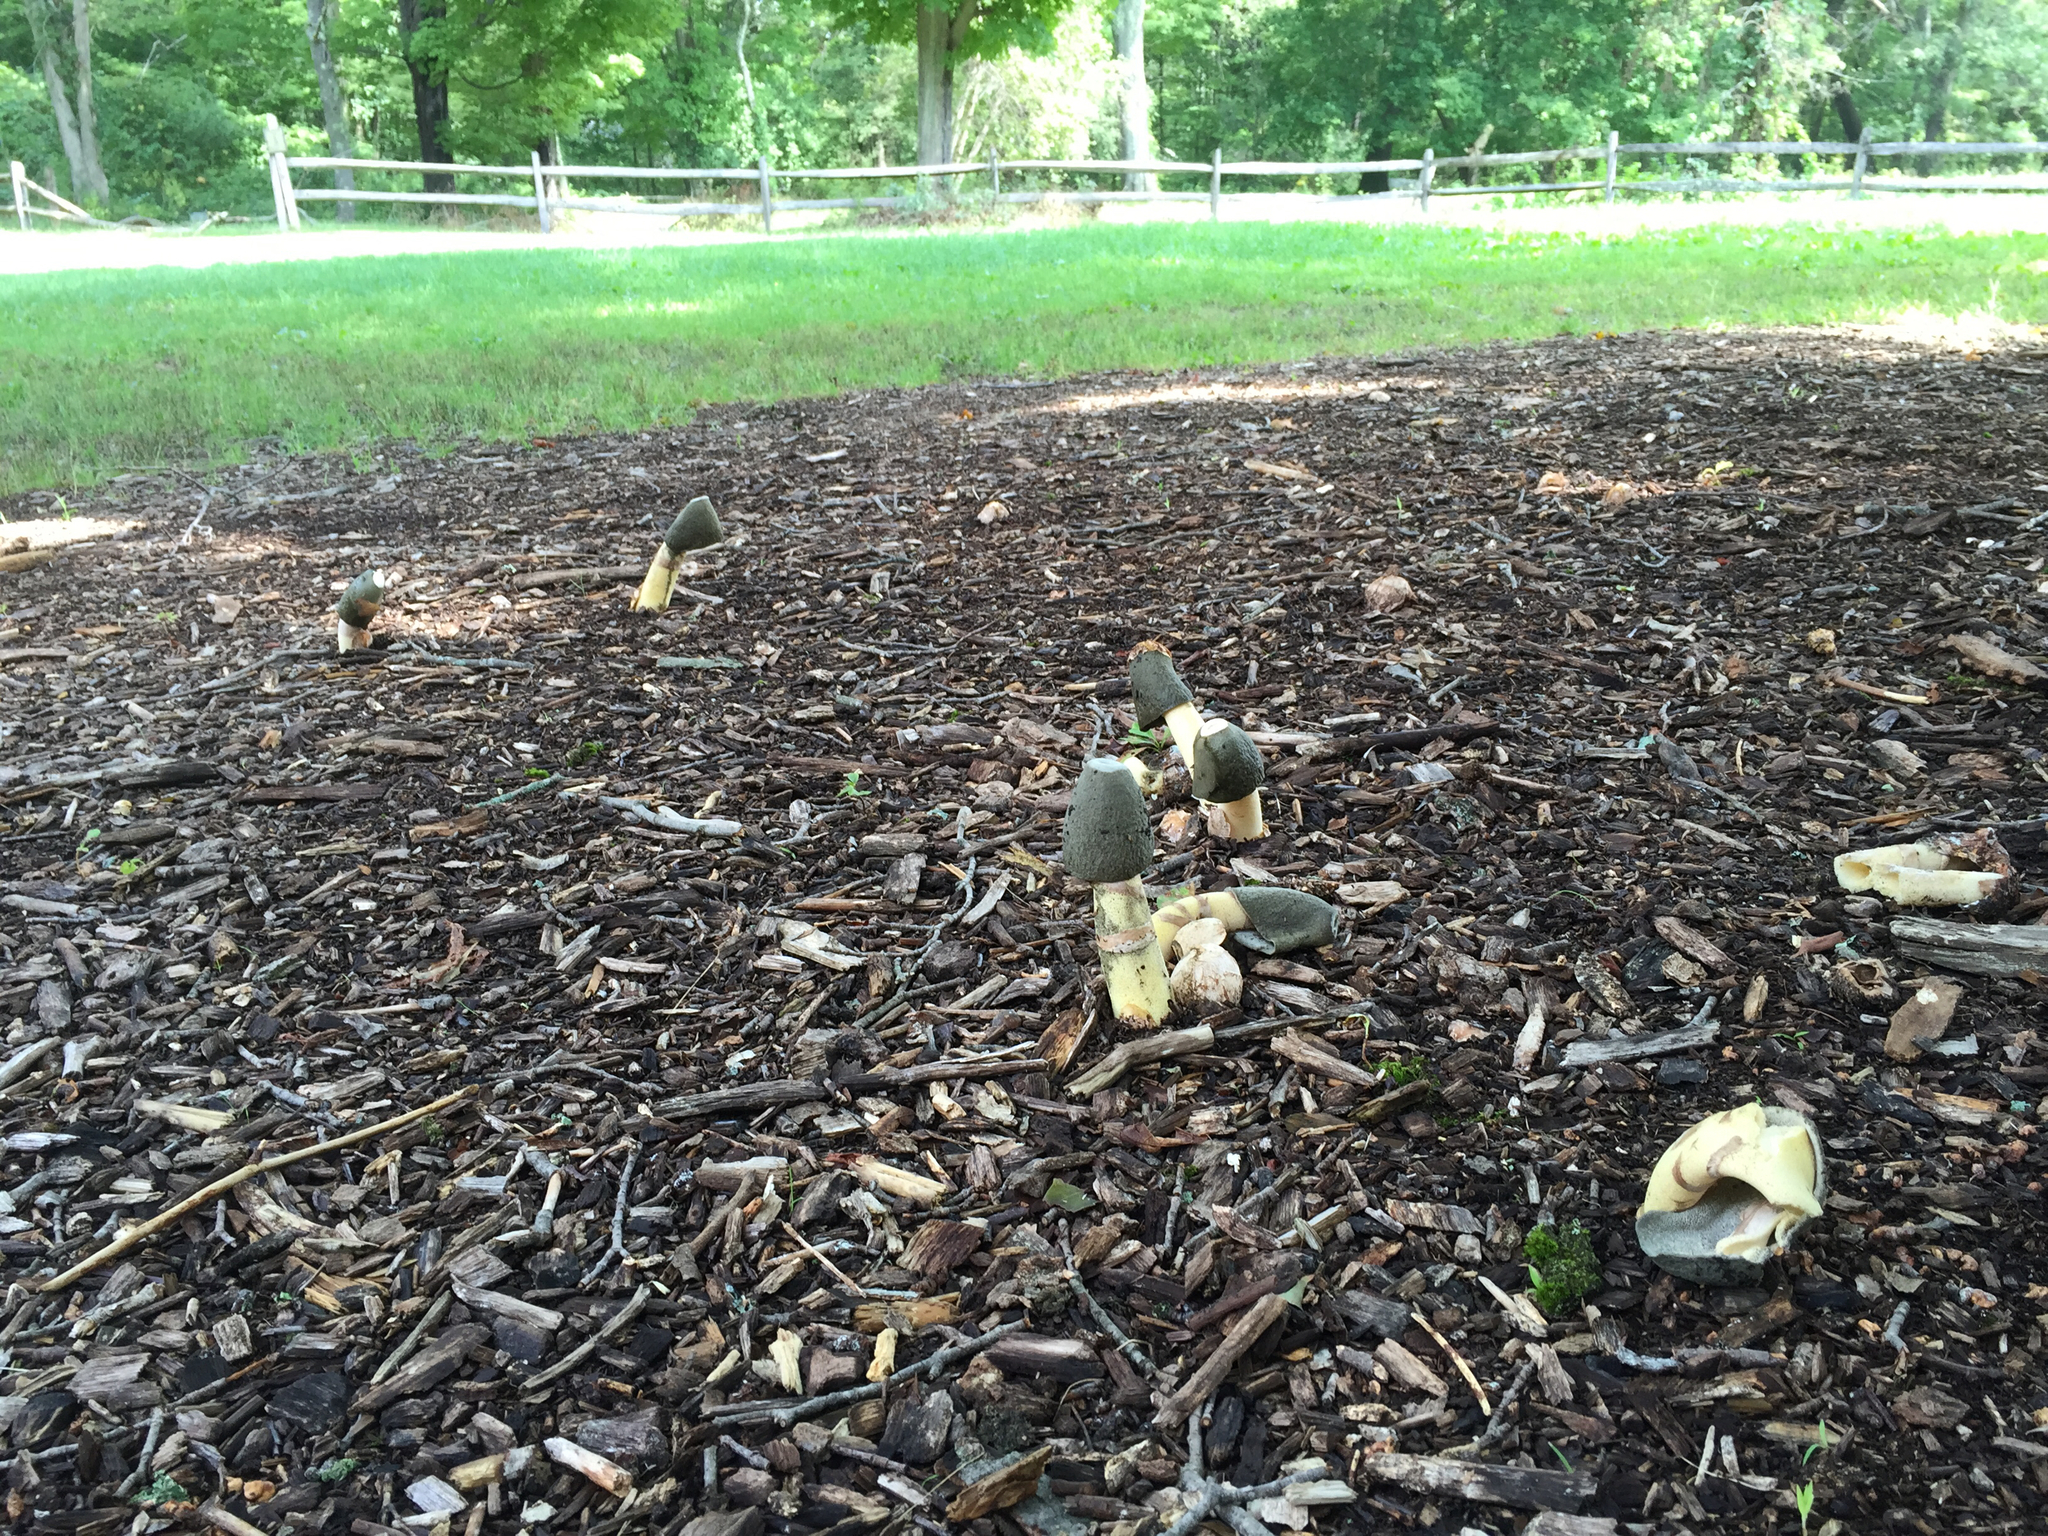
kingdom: Fungi
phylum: Basidiomycota
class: Agaricomycetes
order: Phallales
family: Phallaceae
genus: Phallus
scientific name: Phallus ravenelii
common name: Ravenel's stinkhorn
